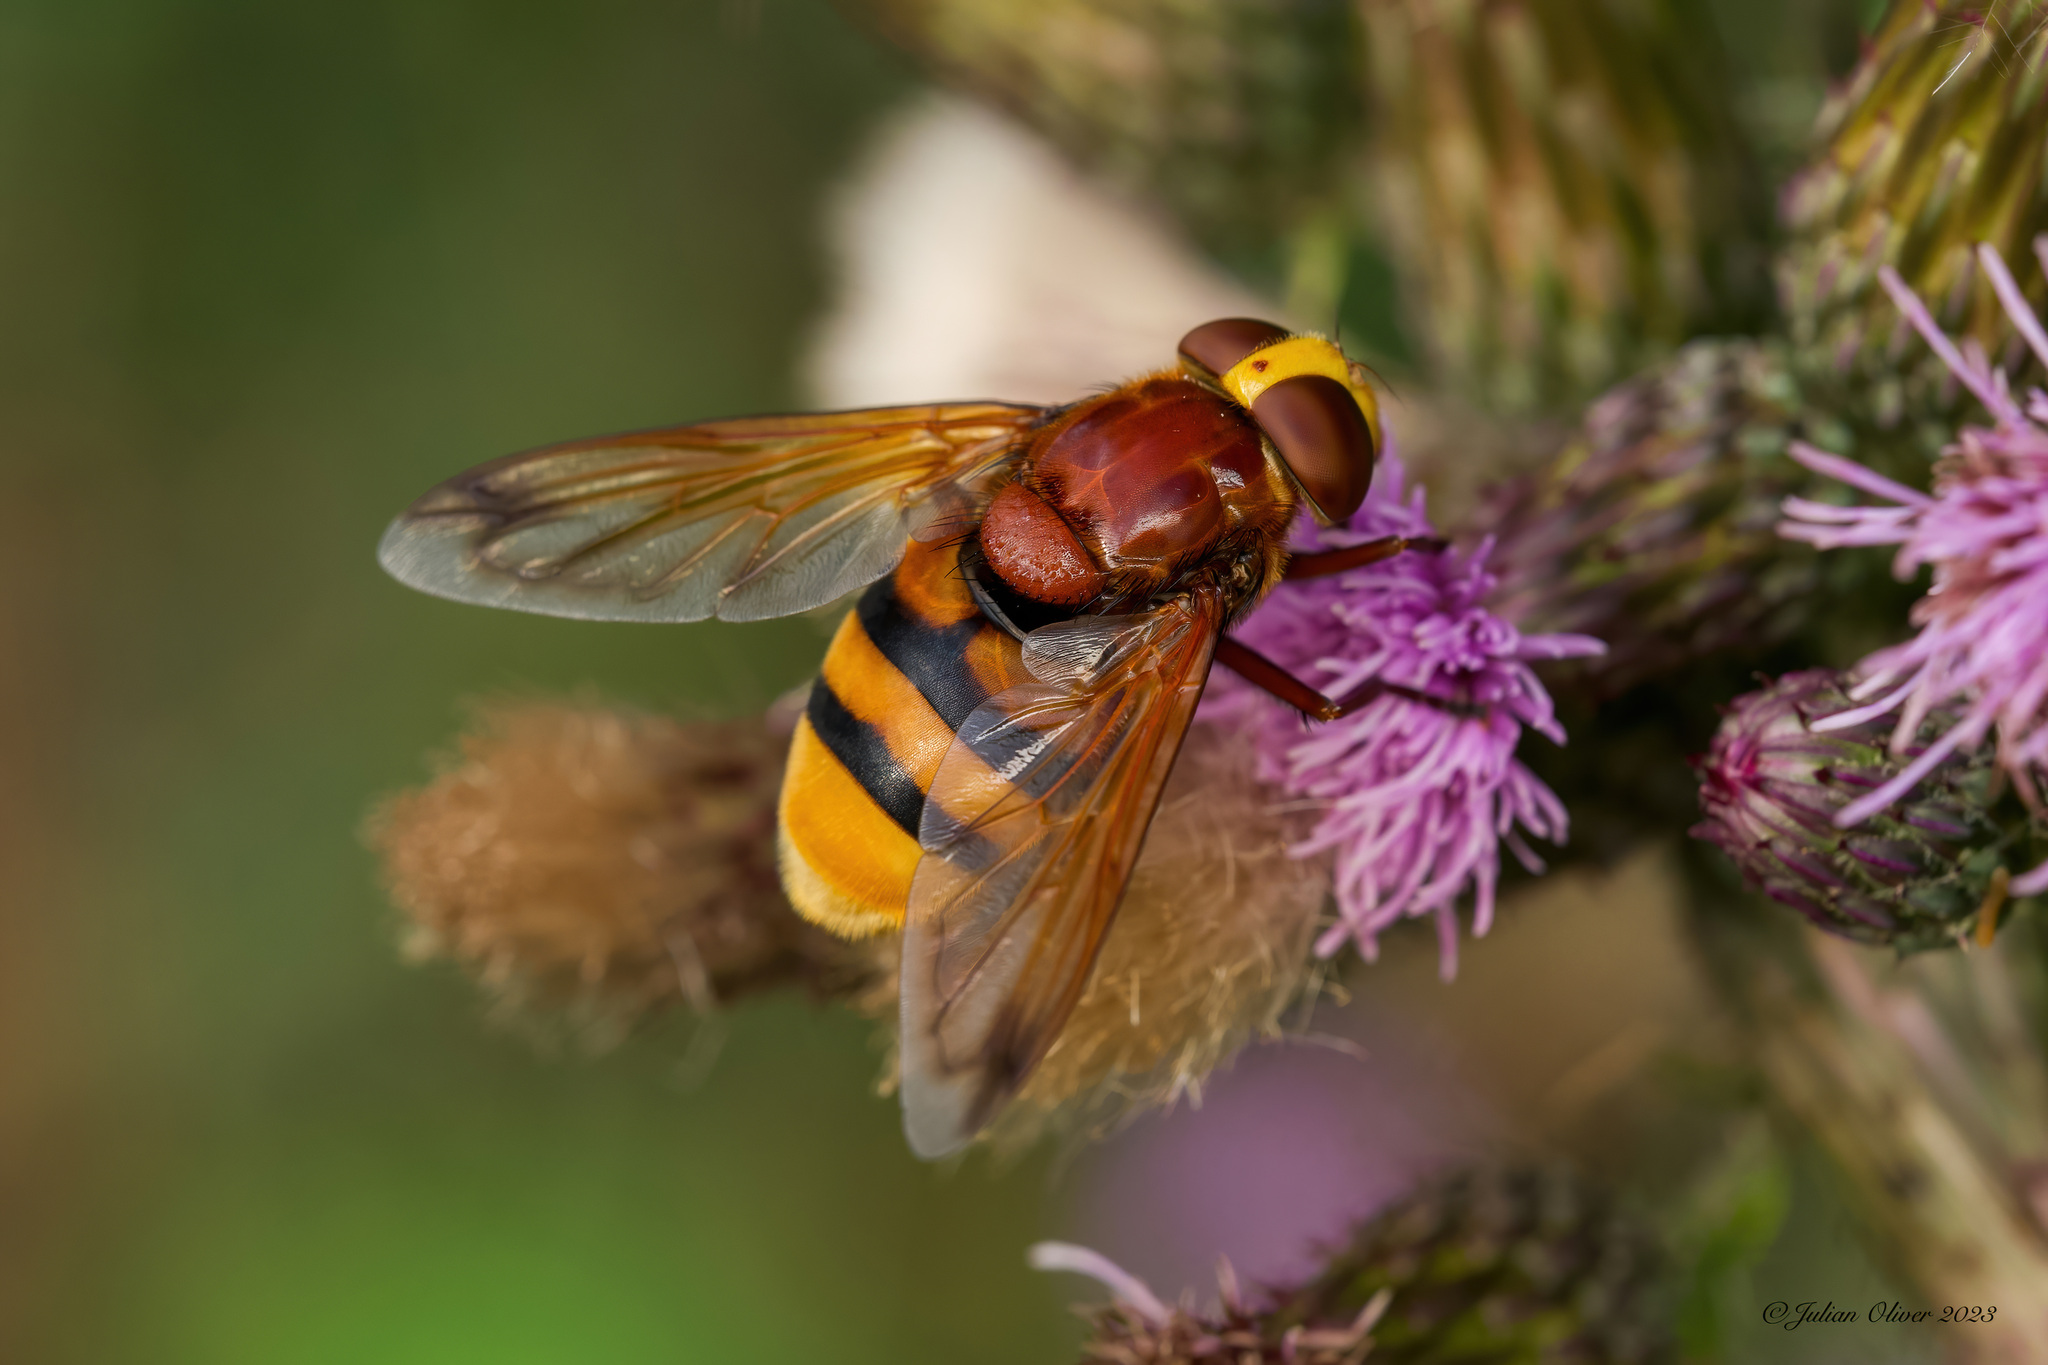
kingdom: Animalia
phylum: Arthropoda
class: Insecta
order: Diptera
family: Syrphidae
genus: Volucella
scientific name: Volucella zonaria
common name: Hornet hoverfly
